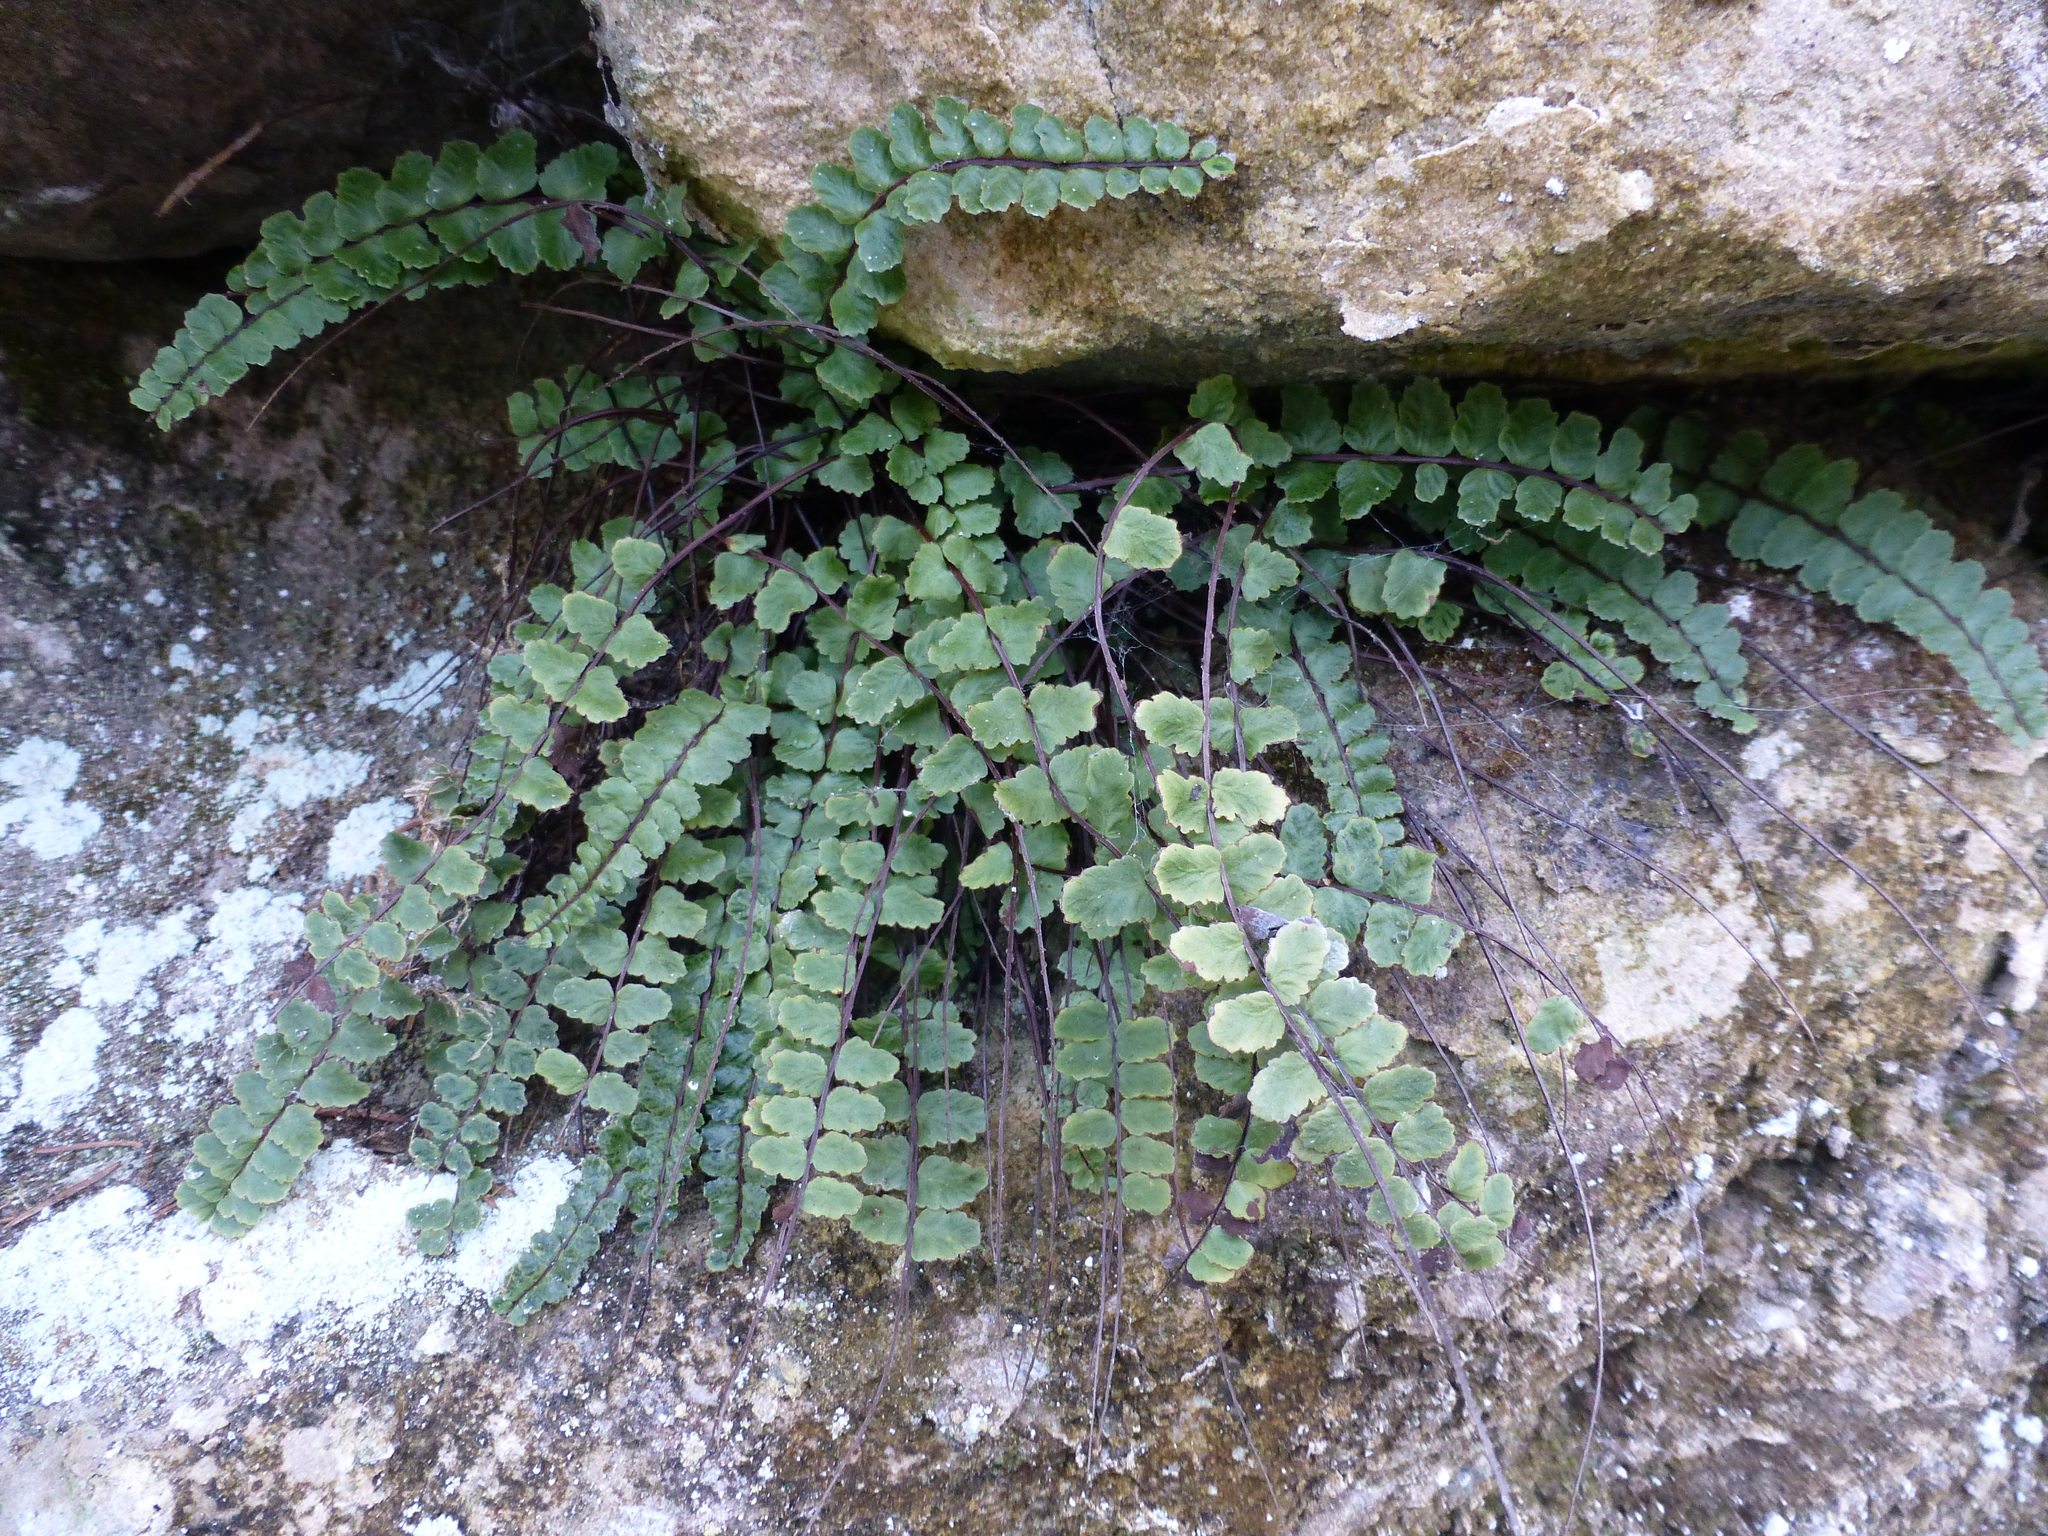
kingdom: Plantae
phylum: Tracheophyta
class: Polypodiopsida
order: Polypodiales
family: Aspleniaceae
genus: Asplenium
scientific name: Asplenium trichomanes
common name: Maidenhair spleenwort
